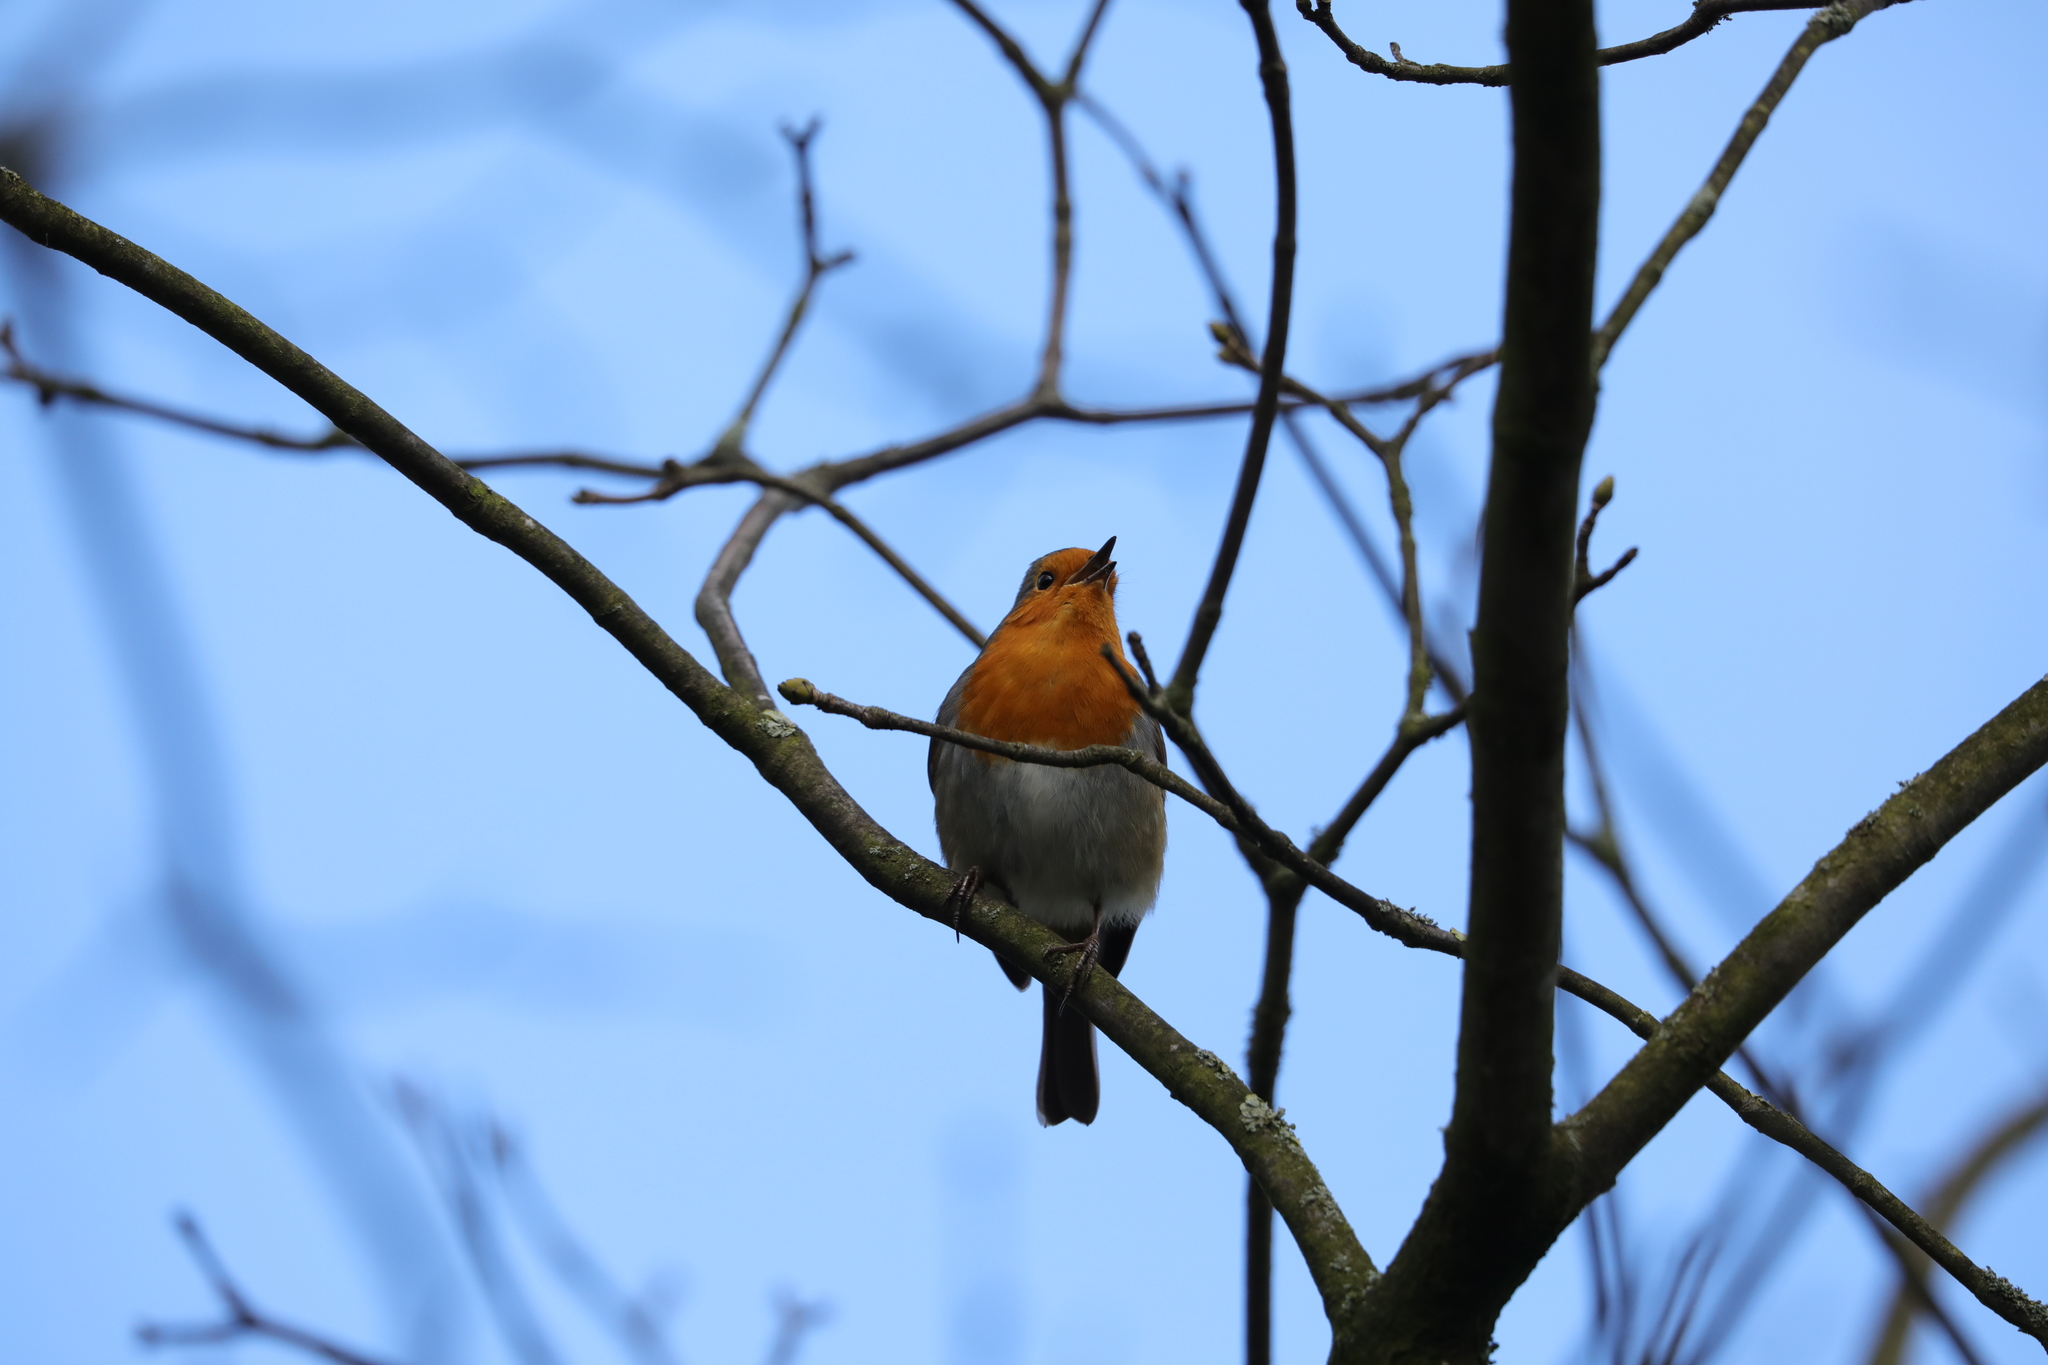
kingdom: Animalia
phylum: Chordata
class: Aves
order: Passeriformes
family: Muscicapidae
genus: Erithacus
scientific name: Erithacus rubecula
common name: European robin
